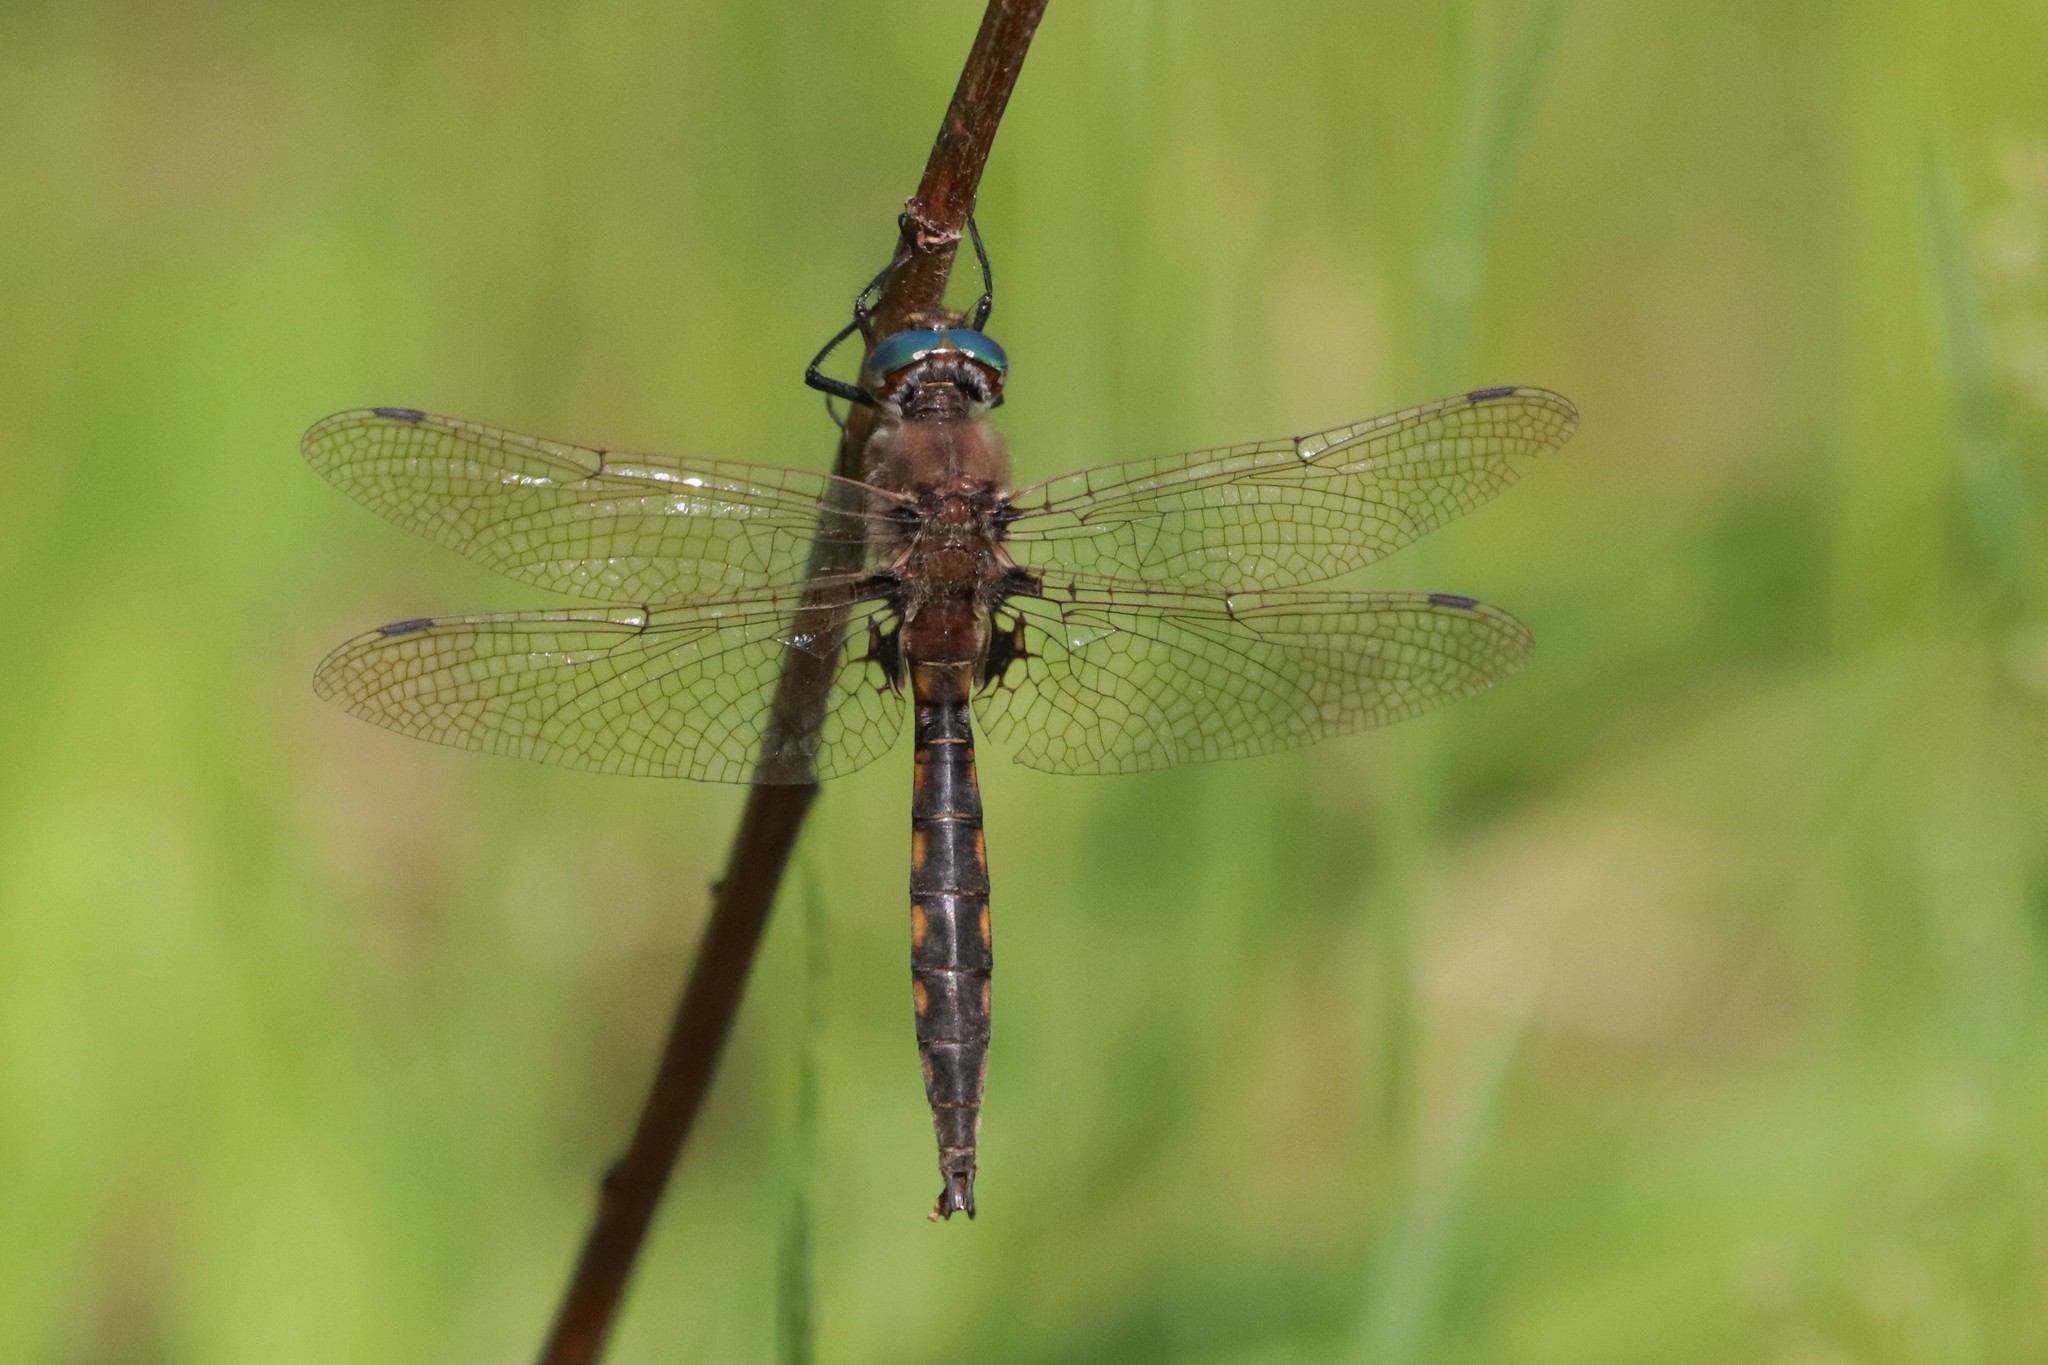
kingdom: Animalia
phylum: Arthropoda
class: Insecta
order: Odonata
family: Corduliidae
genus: Epitheca
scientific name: Epitheca canis
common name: Beaverpond baskettail
